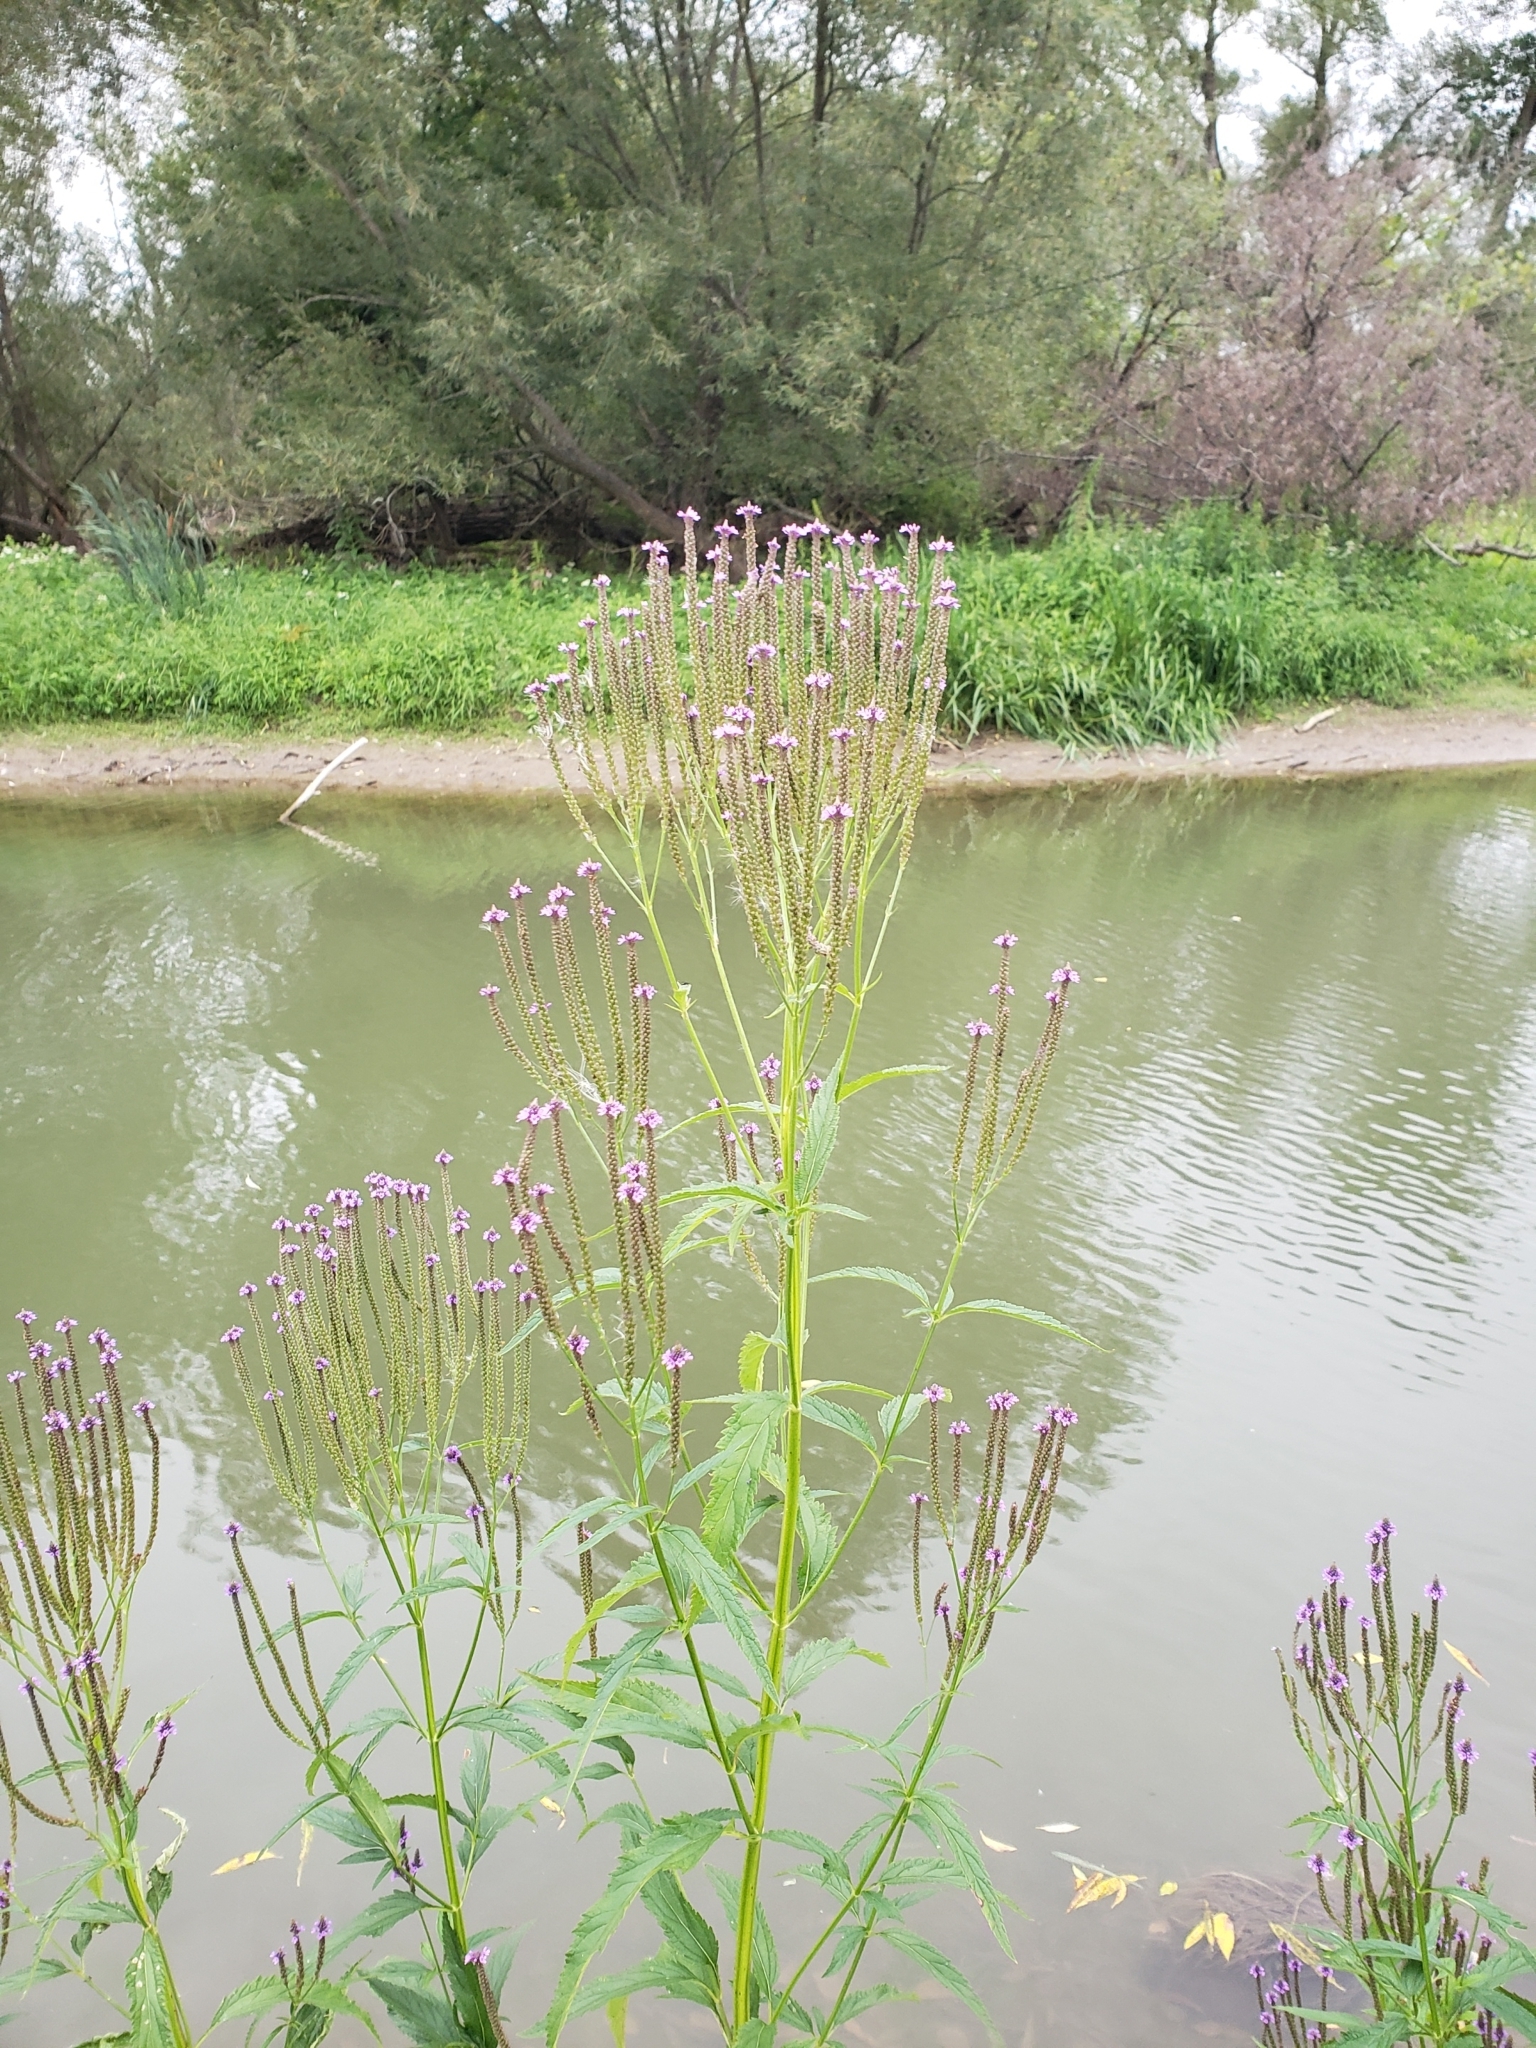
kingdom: Plantae
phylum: Tracheophyta
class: Magnoliopsida
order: Lamiales
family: Verbenaceae
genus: Verbena
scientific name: Verbena hastata
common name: American blue vervain
